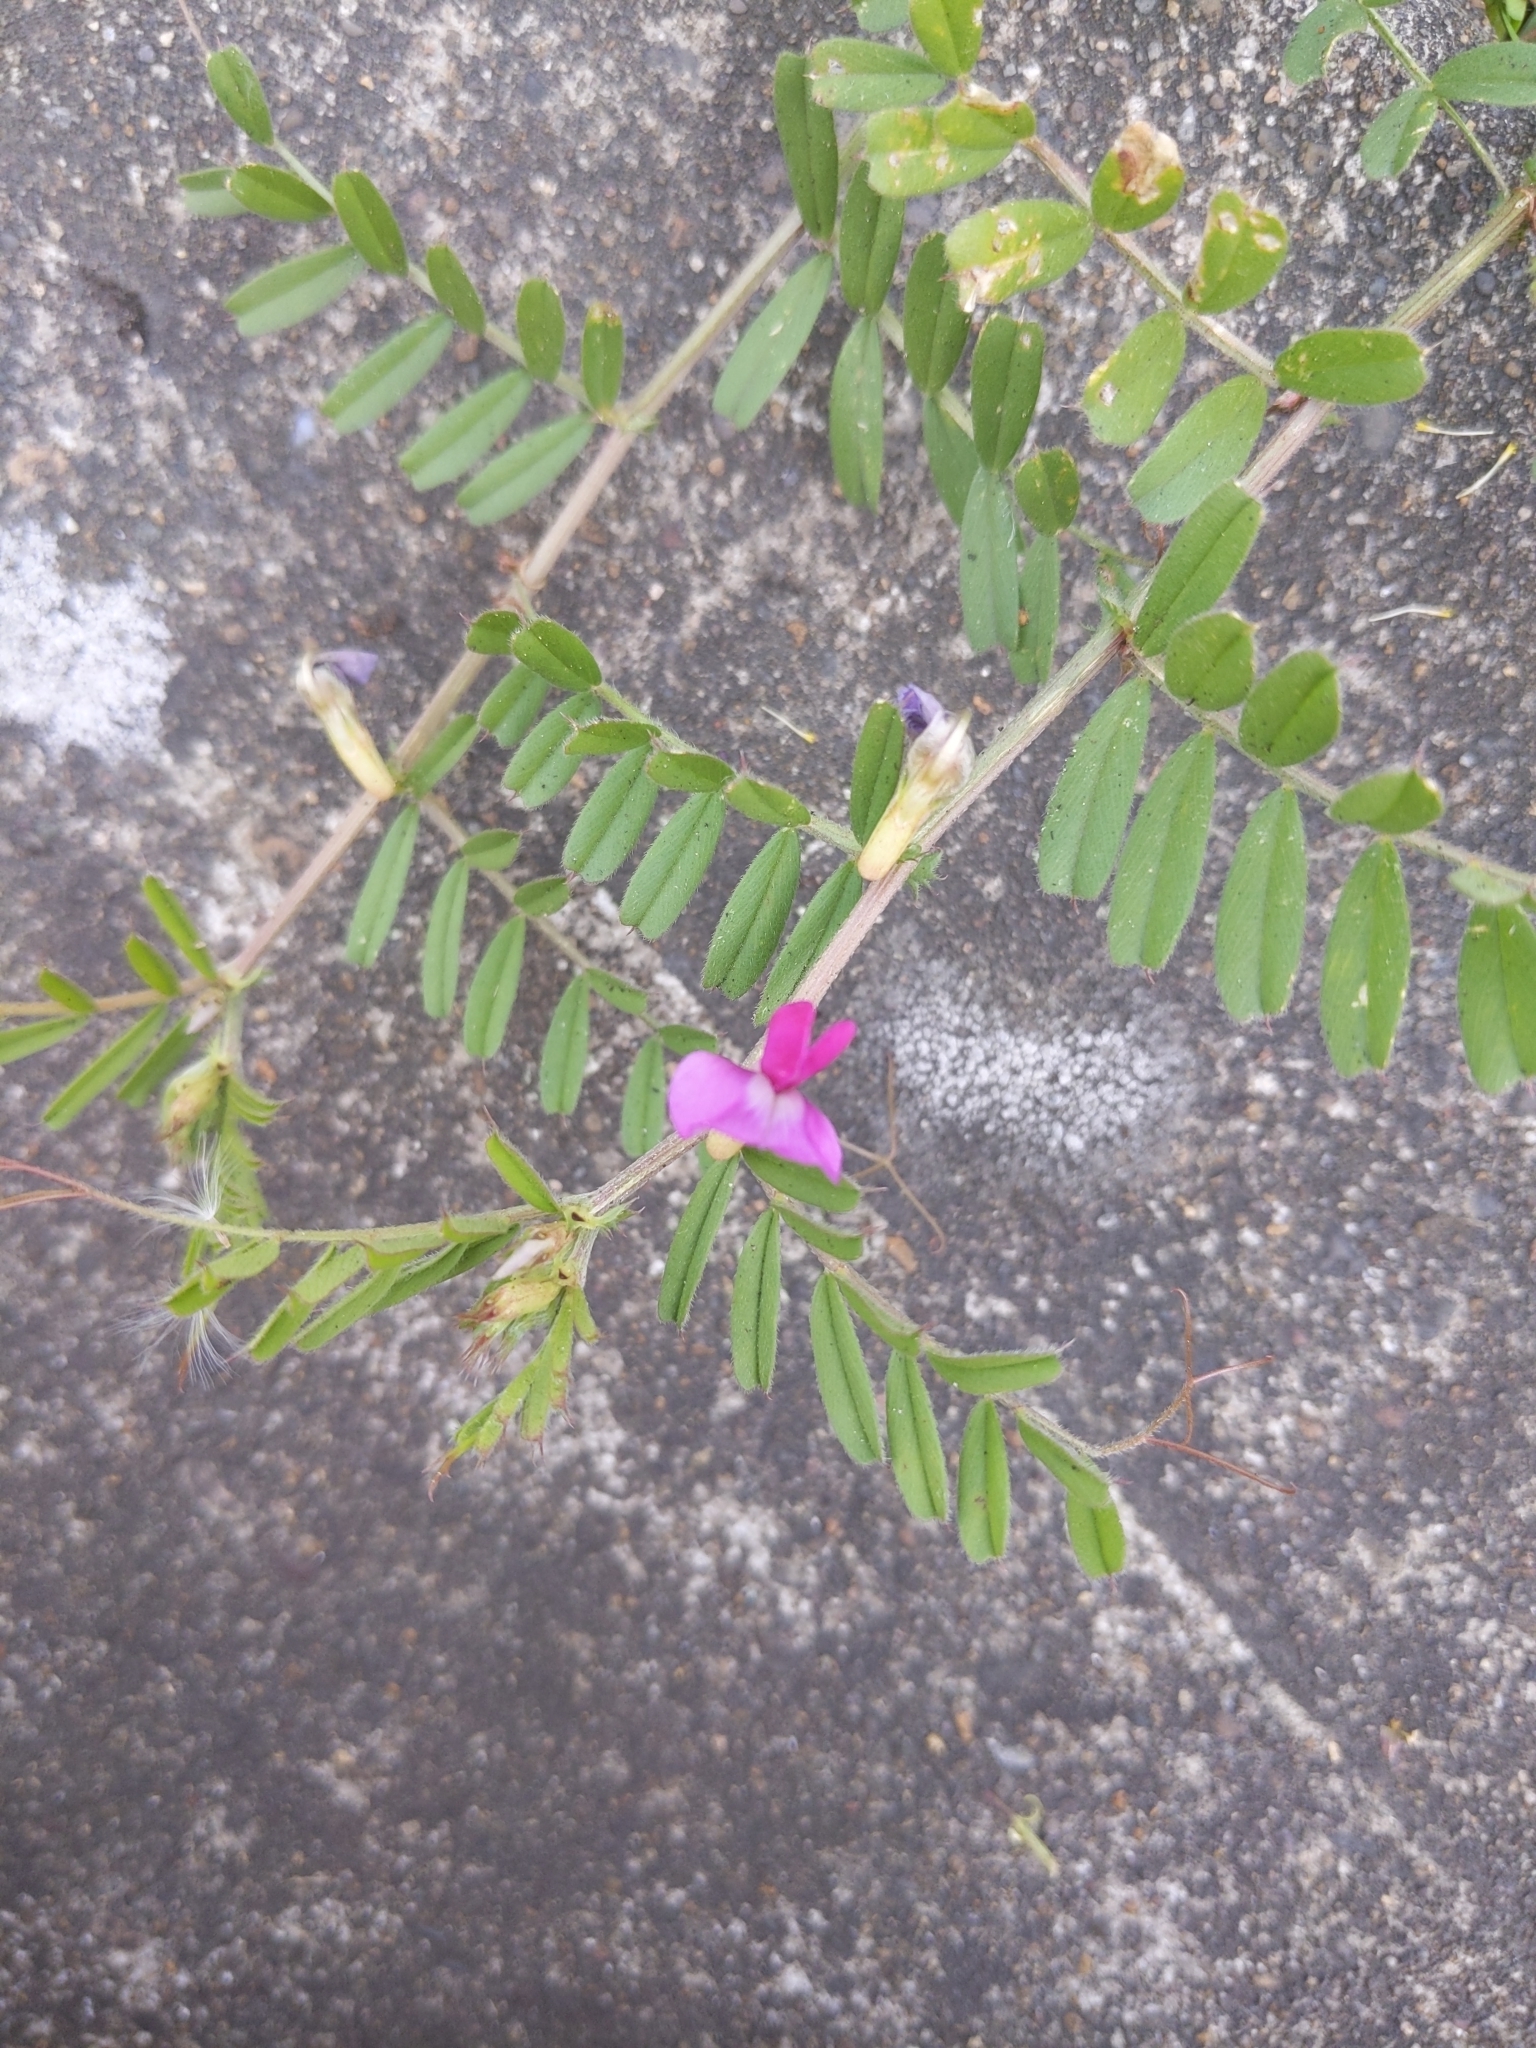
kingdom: Plantae
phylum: Tracheophyta
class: Magnoliopsida
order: Fabales
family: Fabaceae
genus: Vicia
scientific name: Vicia sativa
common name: Garden vetch
